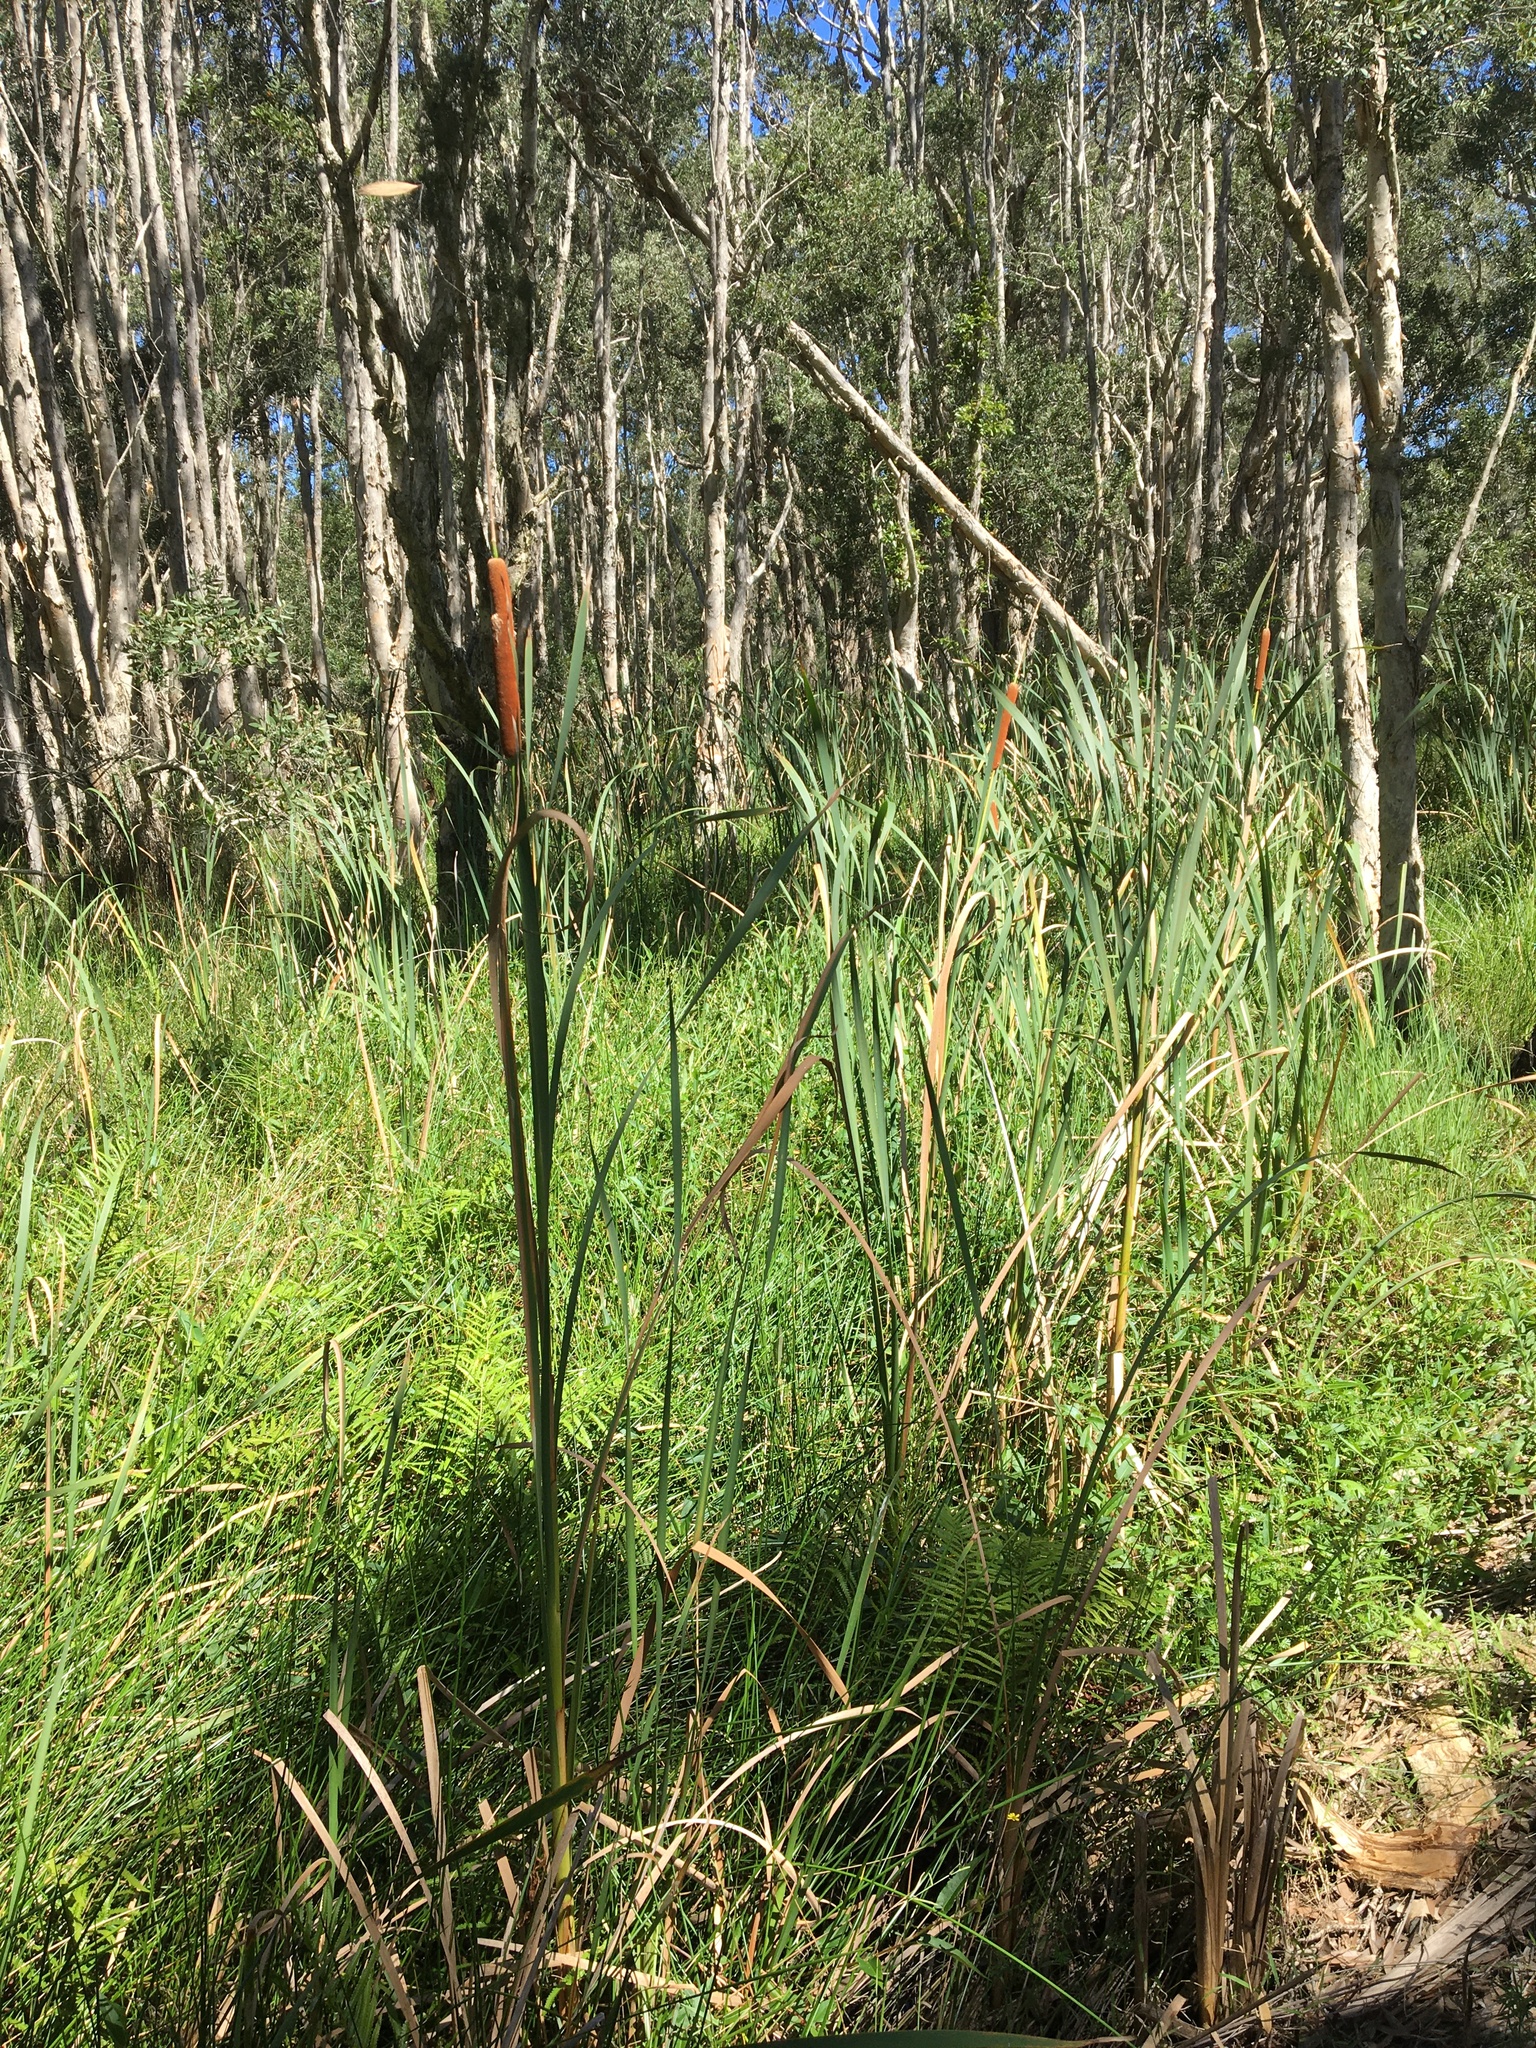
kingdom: Plantae
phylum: Tracheophyta
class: Liliopsida
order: Poales
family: Typhaceae
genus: Typha
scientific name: Typha orientalis
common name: Bullrush
